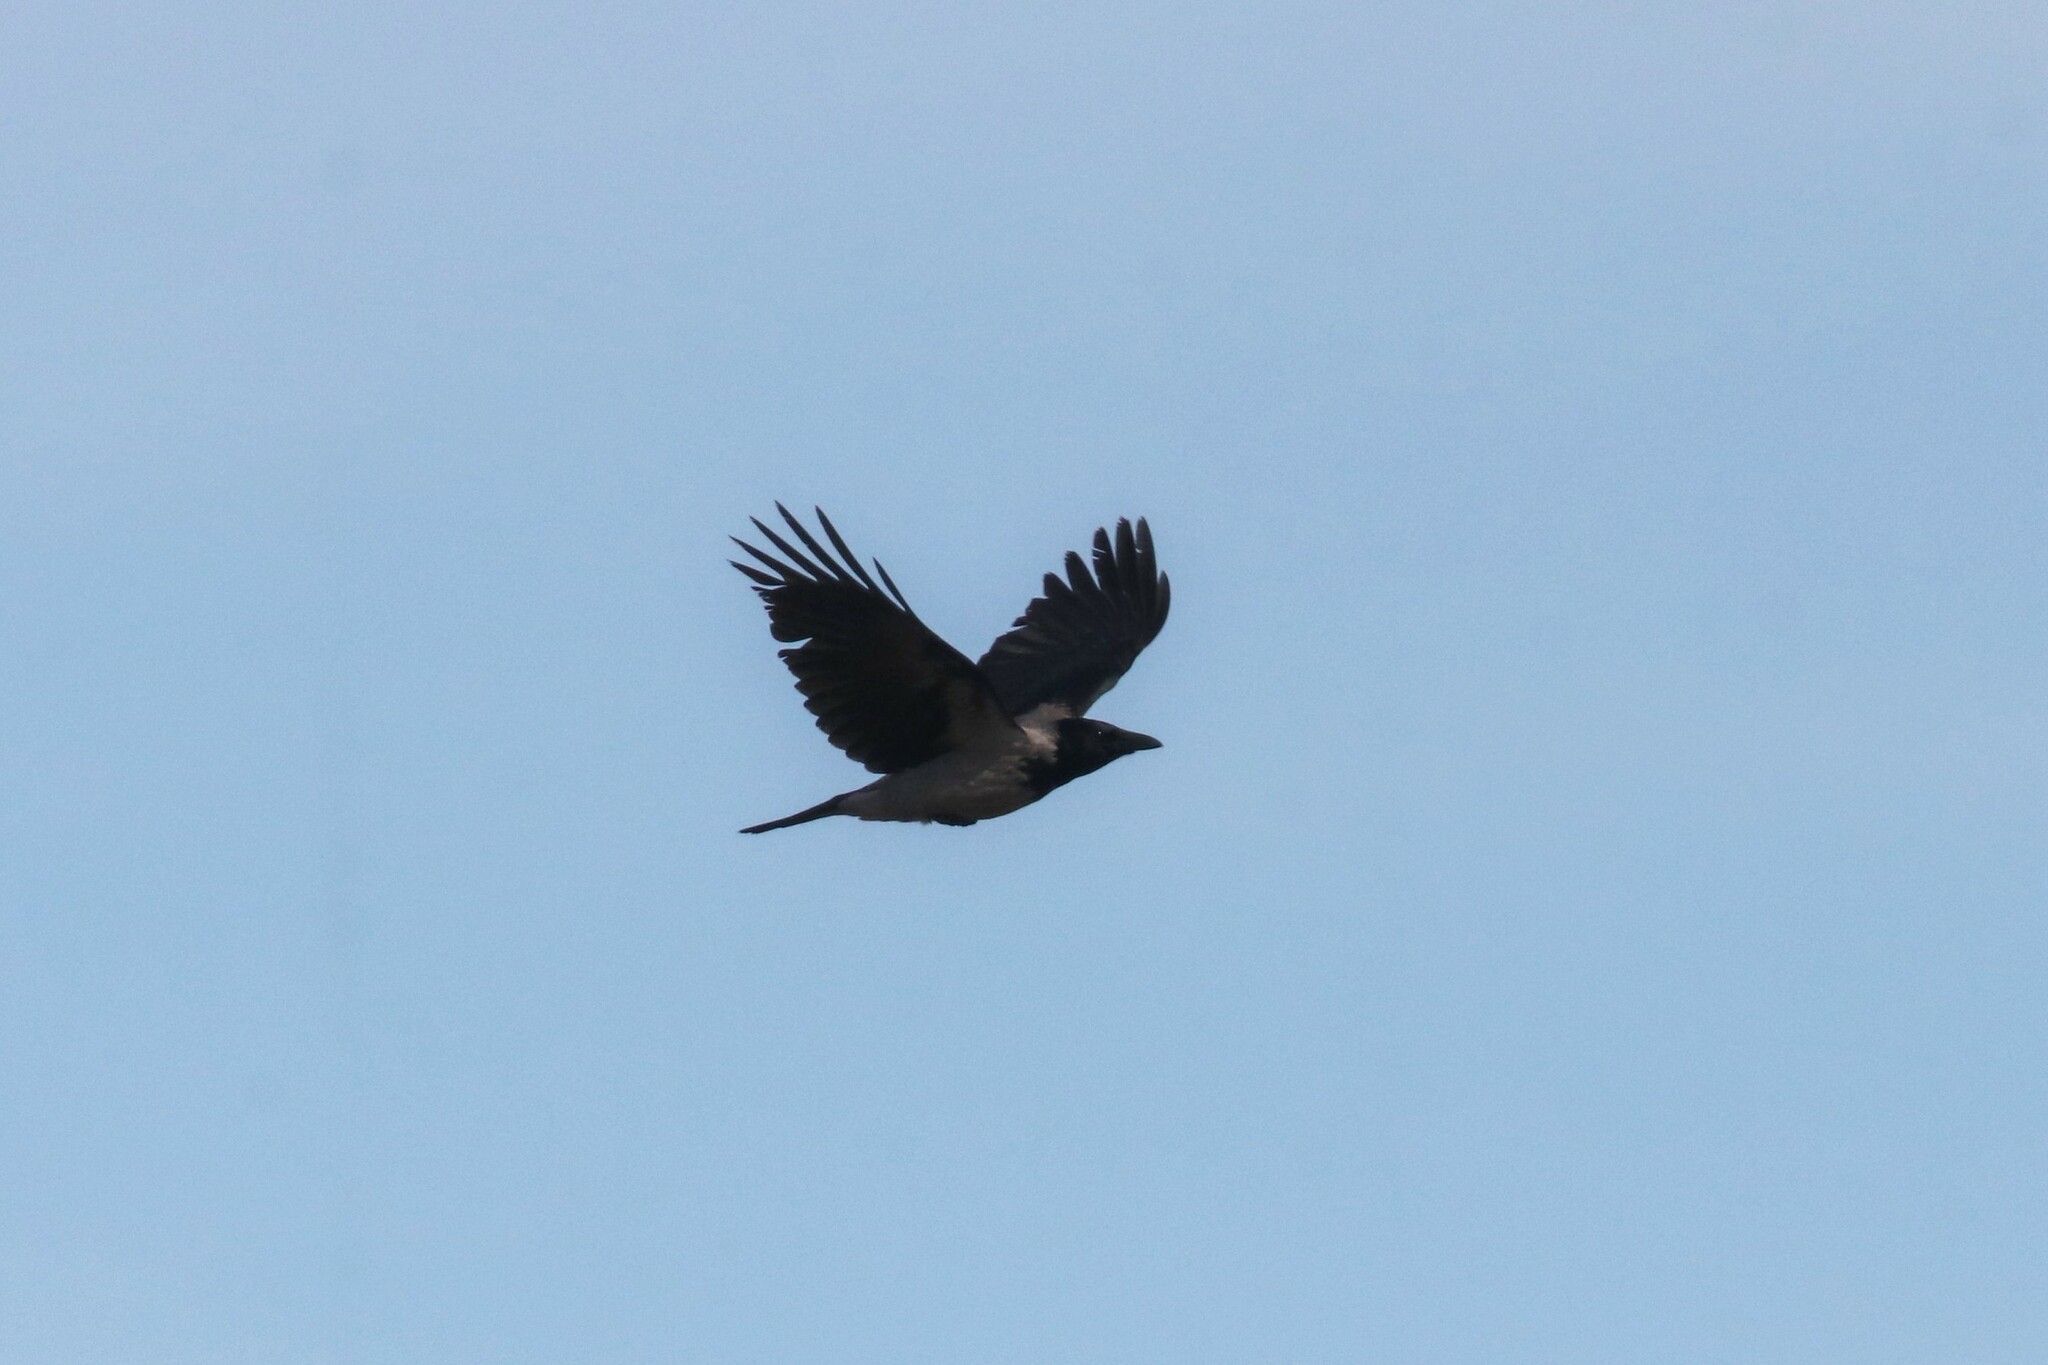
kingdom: Animalia
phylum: Chordata
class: Aves
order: Passeriformes
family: Corvidae
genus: Corvus
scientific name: Corvus cornix
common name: Hooded crow
